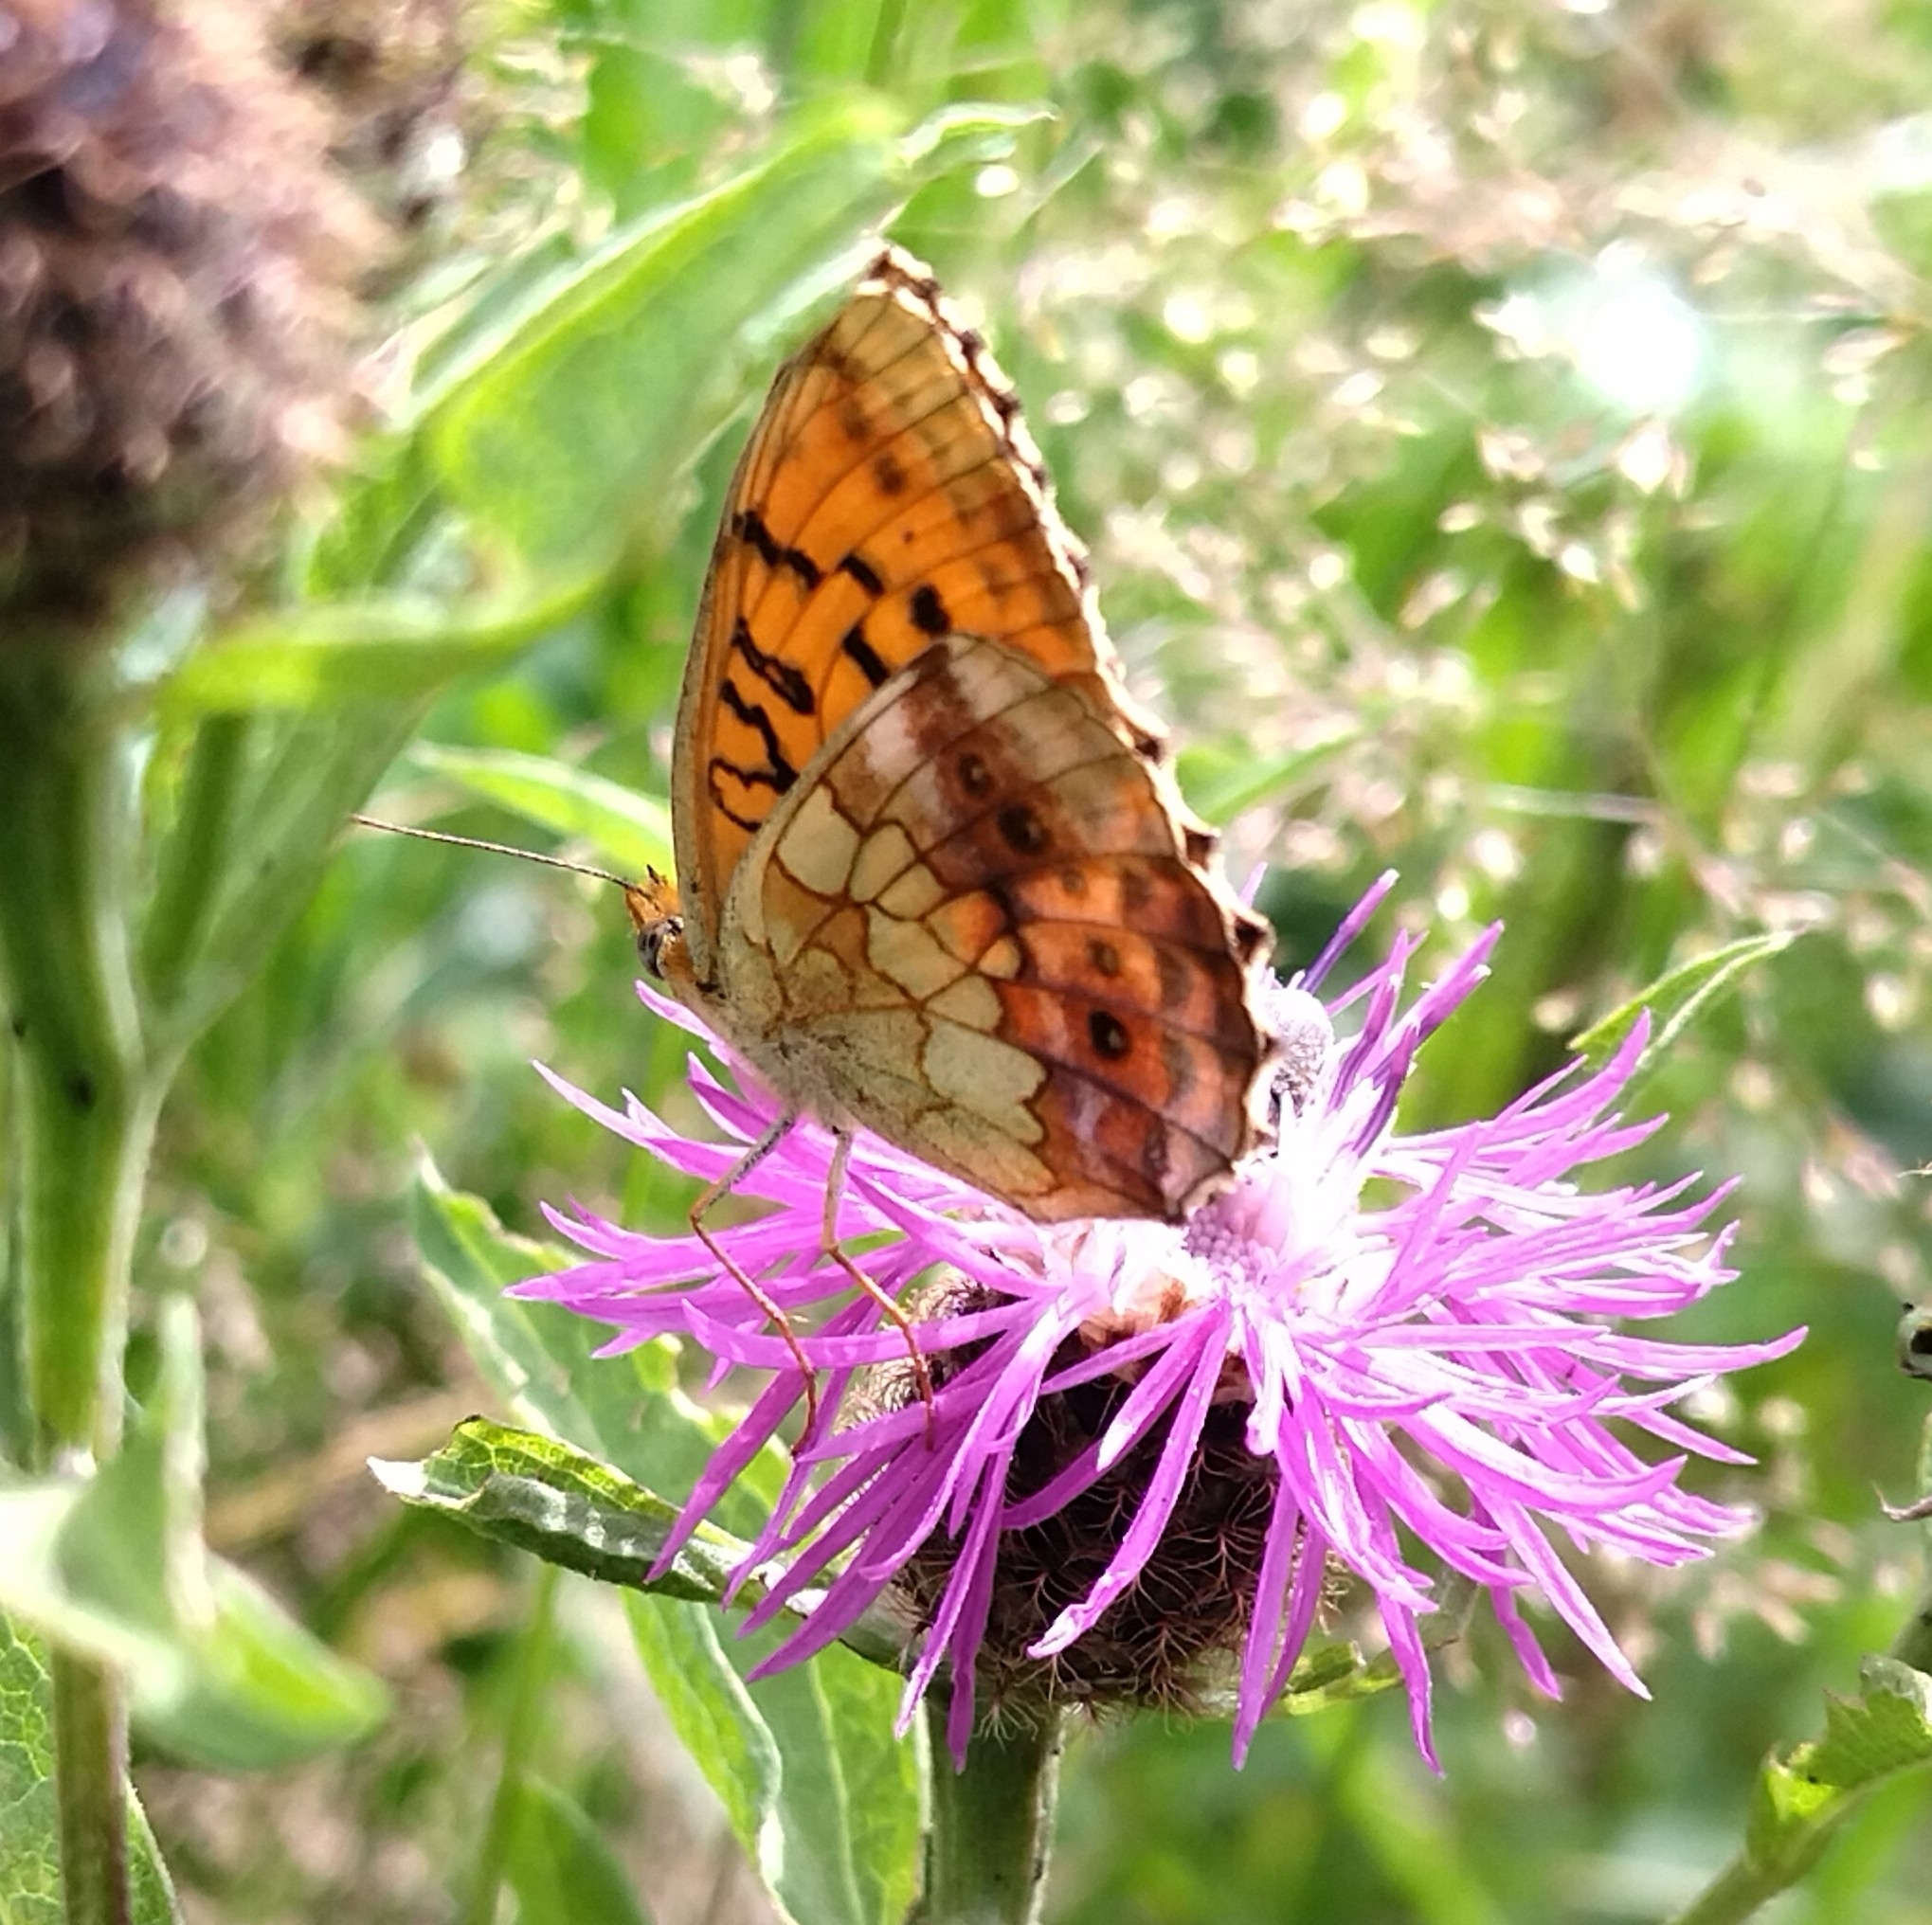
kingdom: Animalia
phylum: Arthropoda
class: Insecta
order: Lepidoptera
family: Nymphalidae
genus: Brenthis
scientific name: Brenthis daphne
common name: Marbled fritillary
